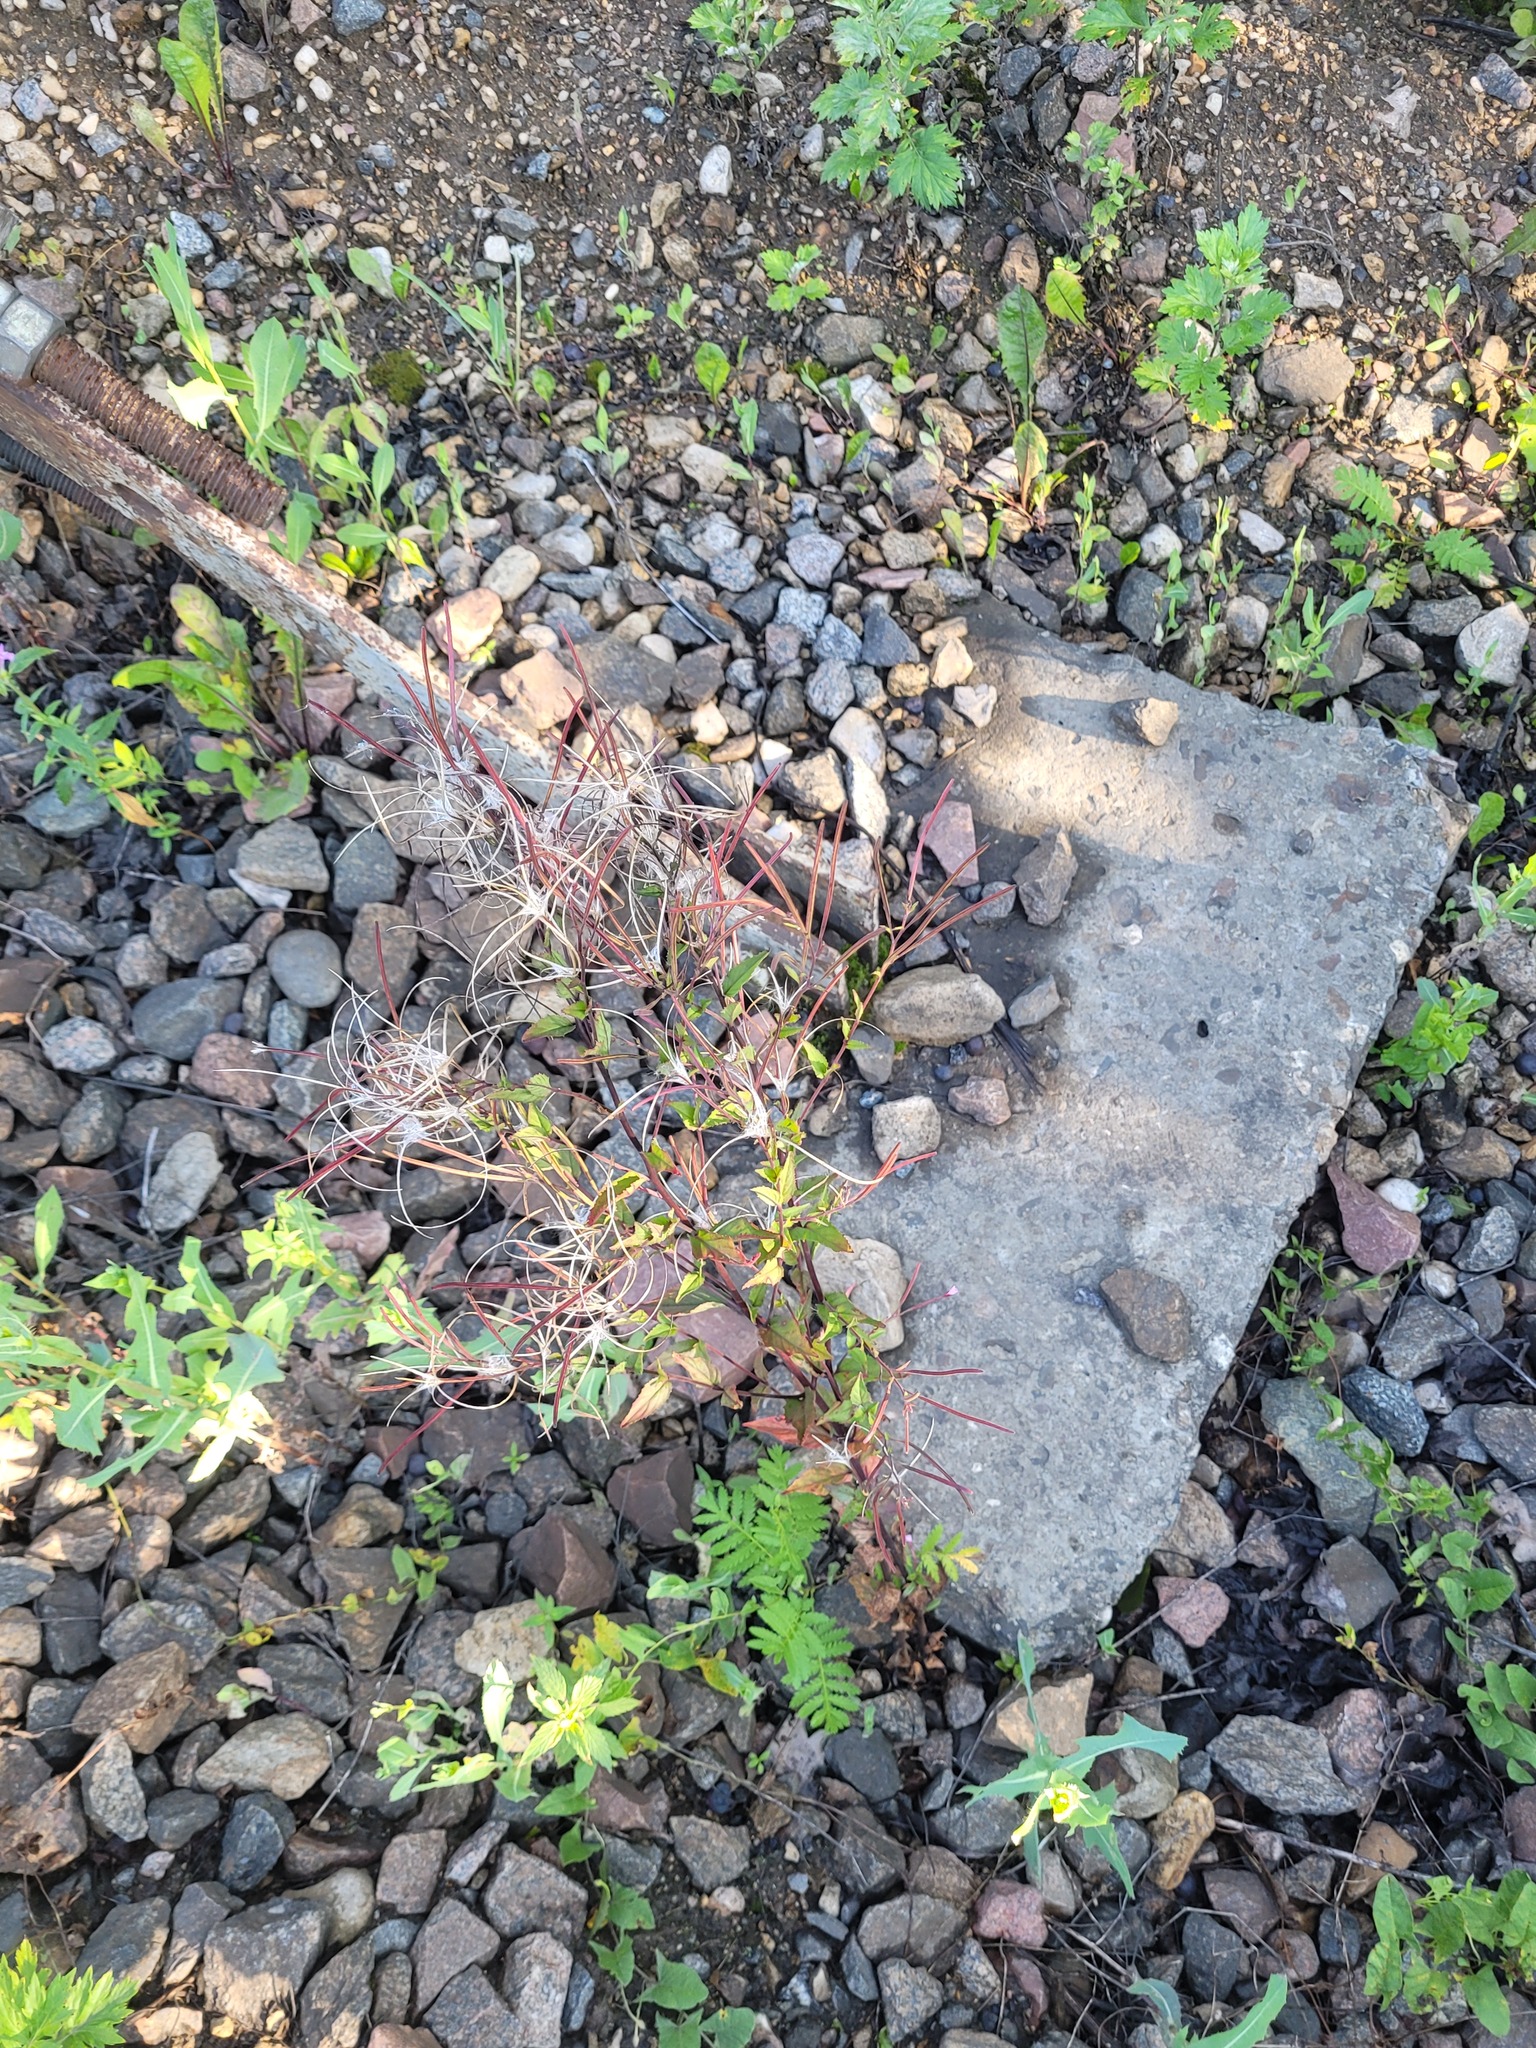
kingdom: Plantae
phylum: Tracheophyta
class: Magnoliopsida
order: Myrtales
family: Onagraceae
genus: Epilobium
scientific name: Epilobium montanum
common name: Broad-leaved willowherb
